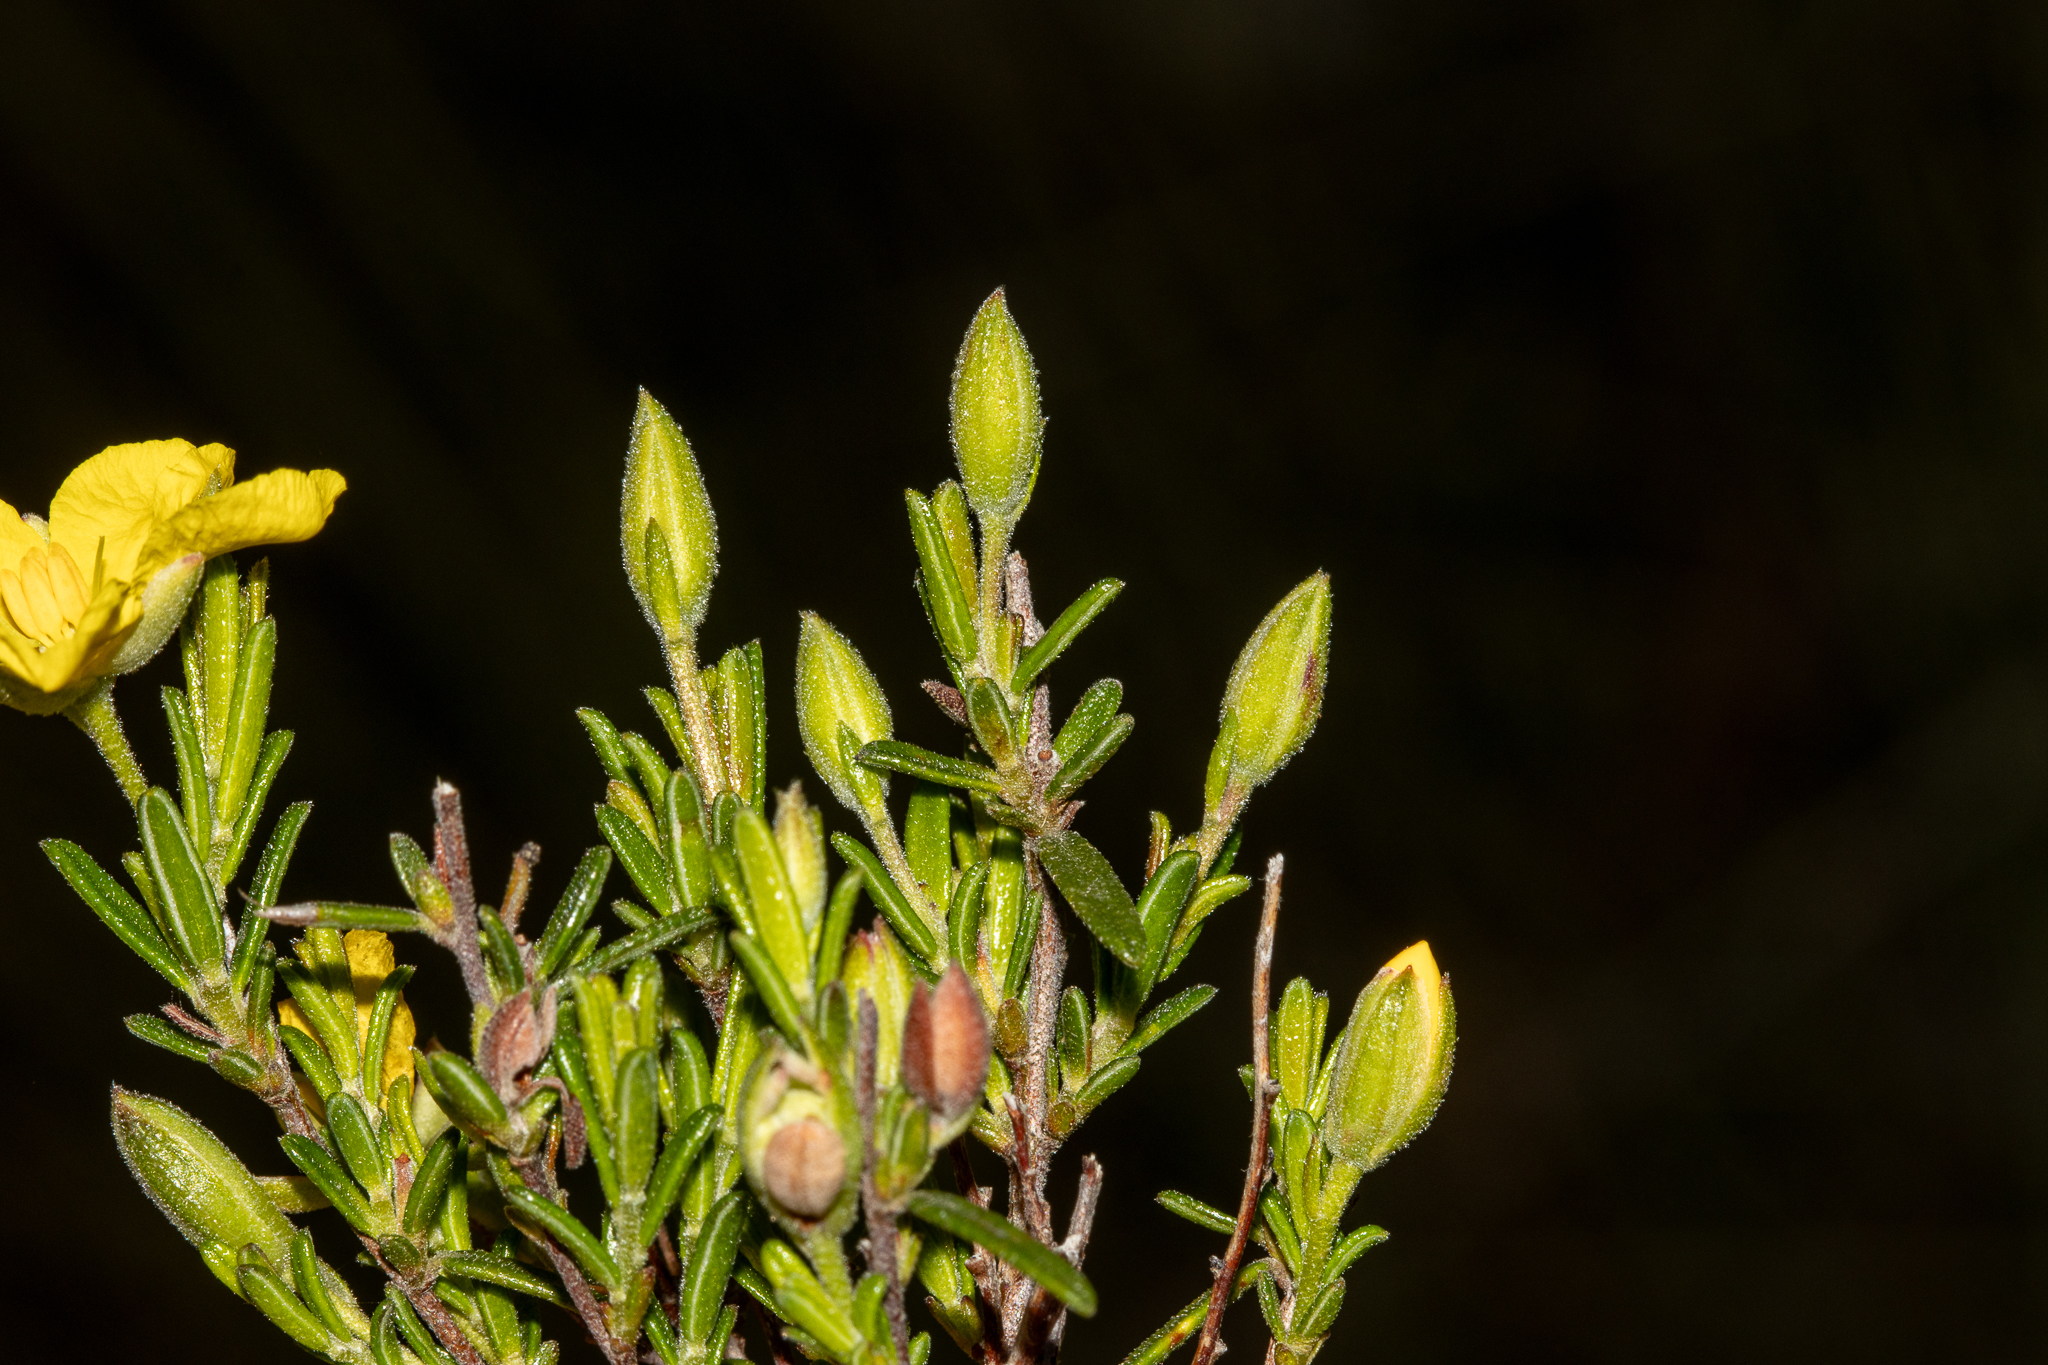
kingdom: Plantae
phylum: Tracheophyta
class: Magnoliopsida
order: Dilleniales
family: Dilleniaceae
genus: Hibbertia
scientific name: Hibbertia australis
